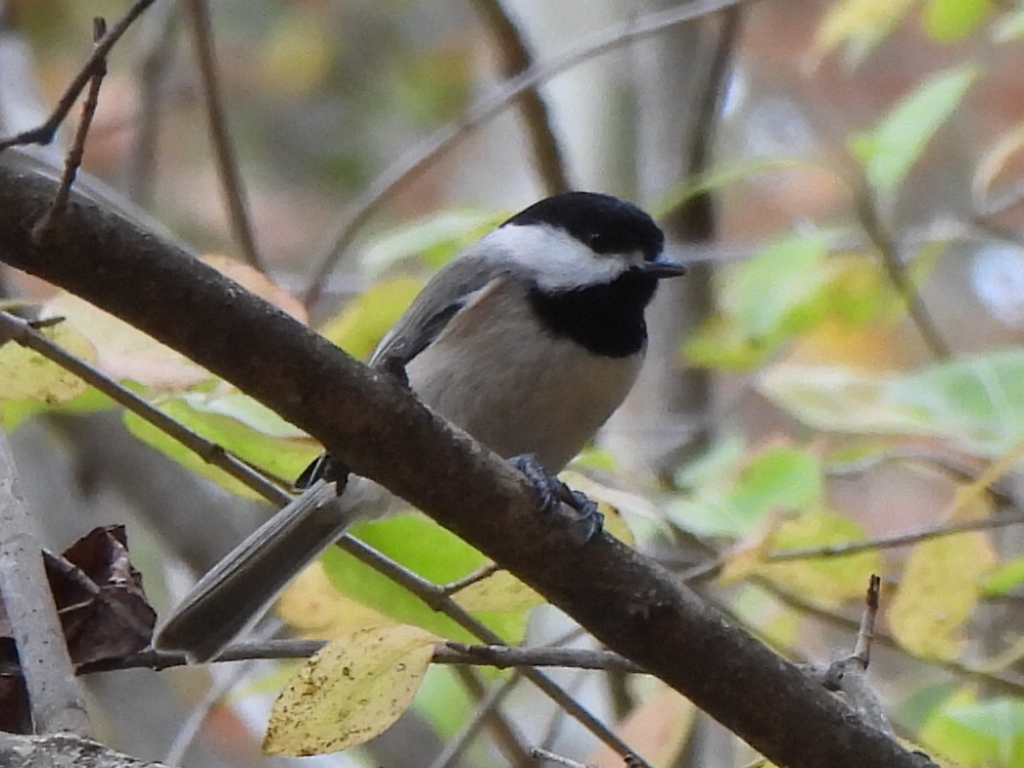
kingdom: Animalia
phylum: Chordata
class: Aves
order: Passeriformes
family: Paridae
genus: Poecile
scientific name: Poecile carolinensis
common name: Carolina chickadee
